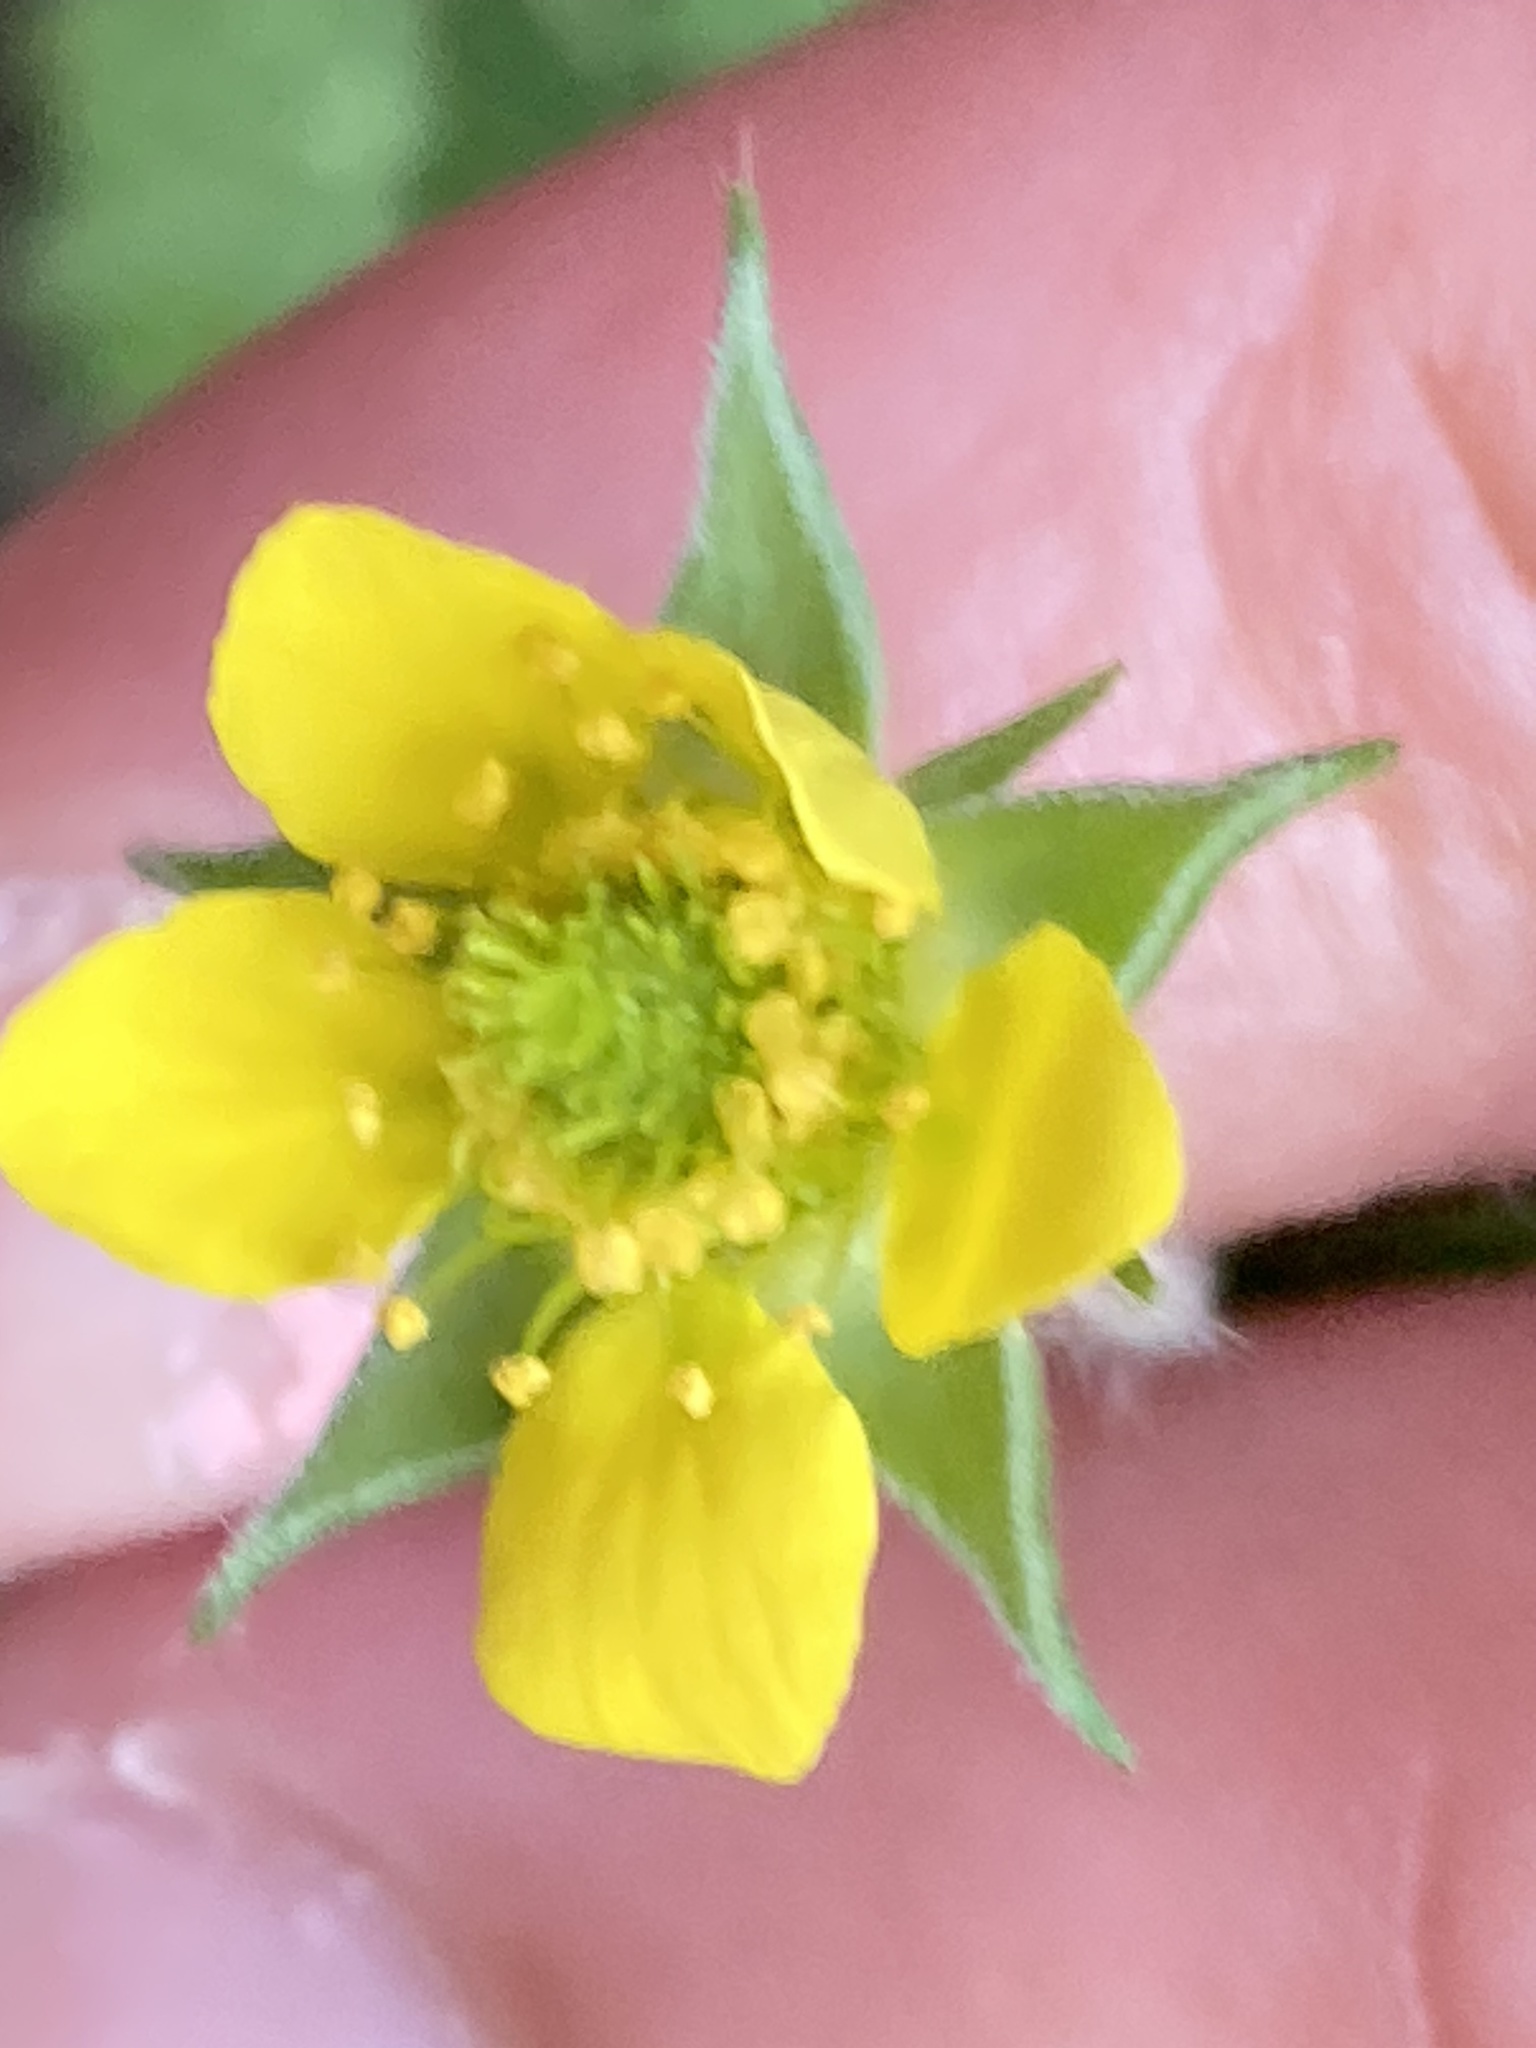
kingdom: Plantae
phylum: Tracheophyta
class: Magnoliopsida
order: Rosales
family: Rosaceae
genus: Geum
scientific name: Geum urbanum
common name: Wood avens
